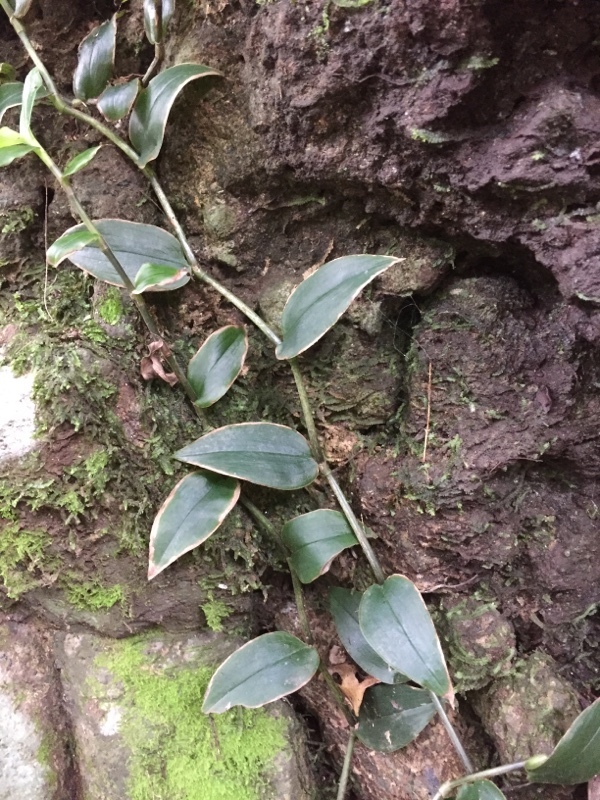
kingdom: Plantae
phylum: Tracheophyta
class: Liliopsida
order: Commelinales
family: Commelinaceae
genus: Tradescantia
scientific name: Tradescantia fluminensis
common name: Wandering-jew
